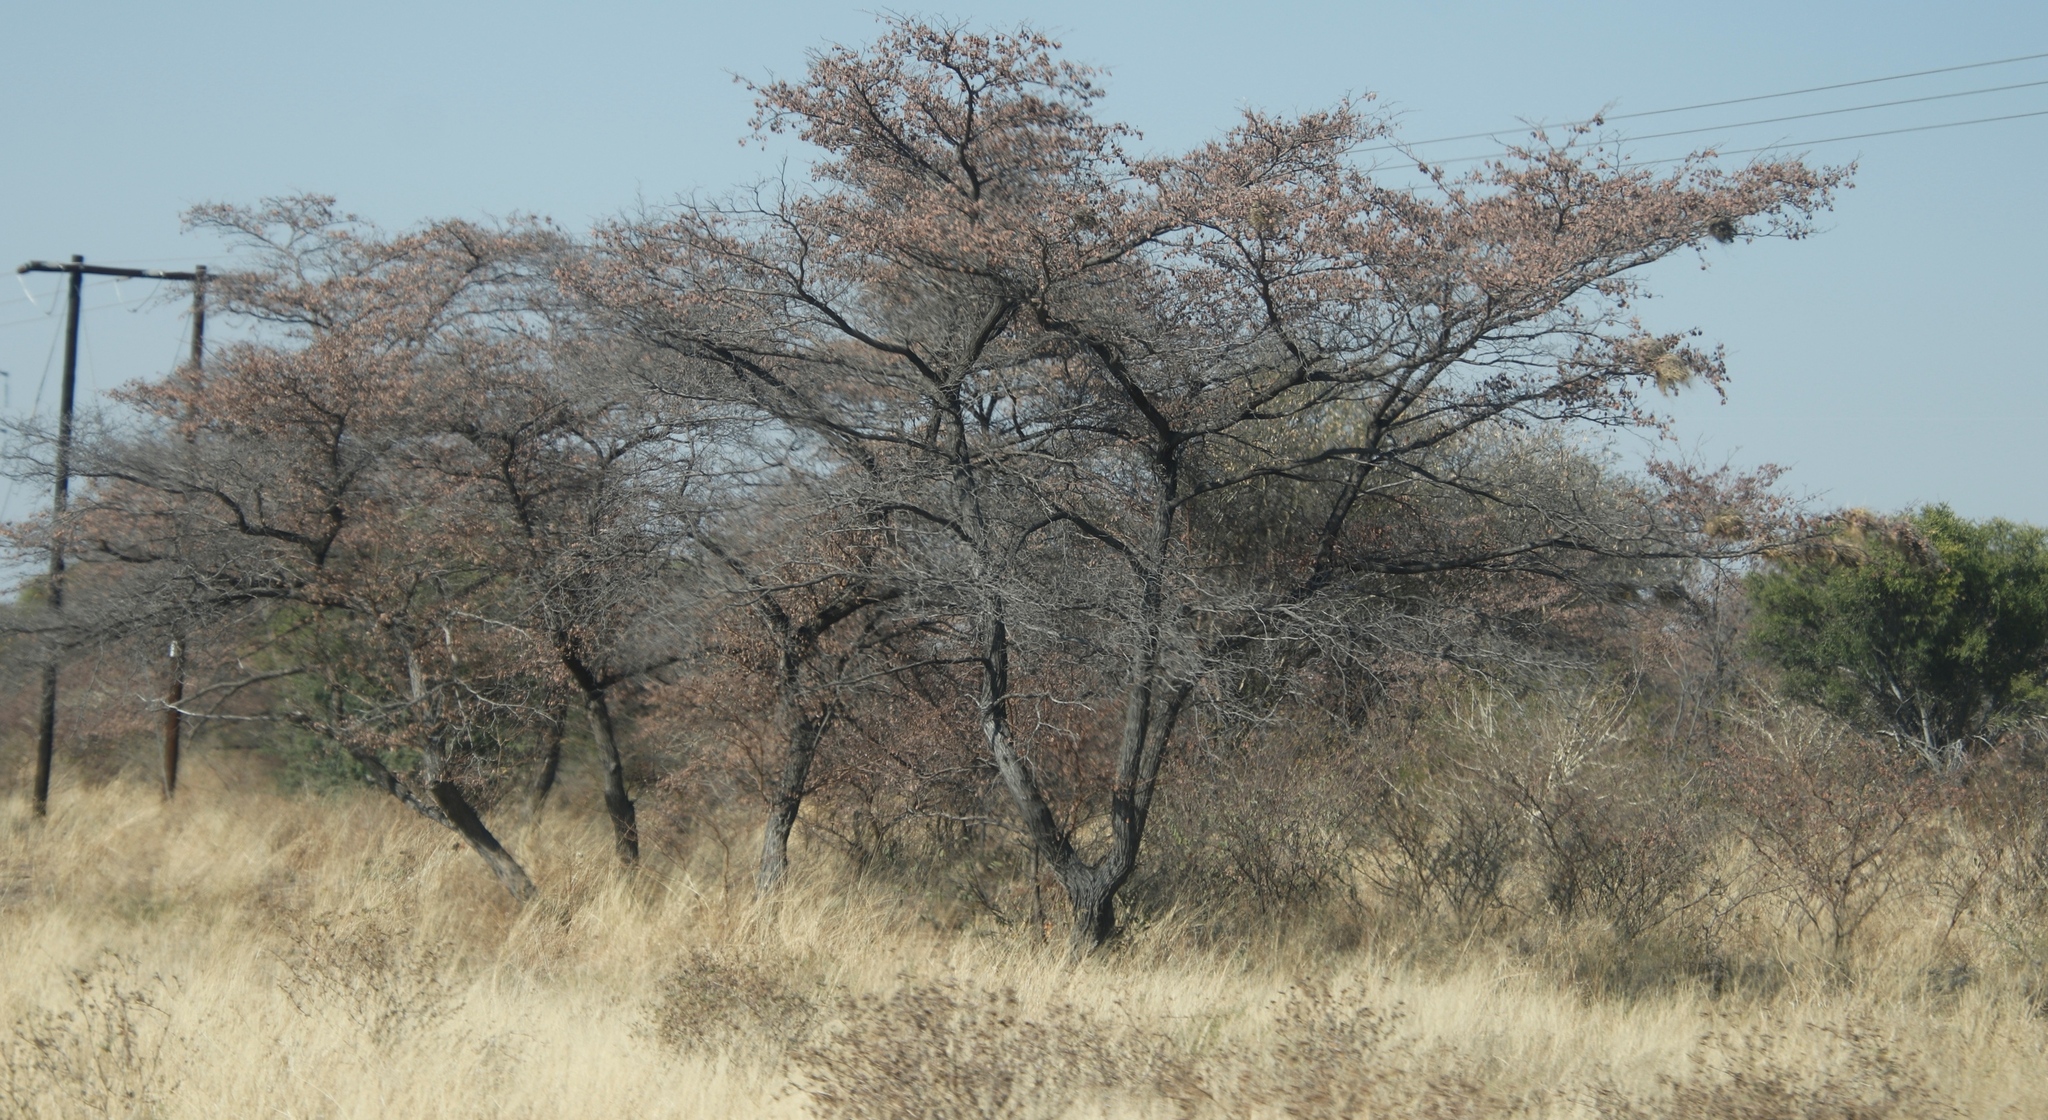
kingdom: Plantae
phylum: Tracheophyta
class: Magnoliopsida
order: Myrtales
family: Combretaceae
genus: Terminalia
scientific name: Terminalia sericea
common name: Clusterleaf
